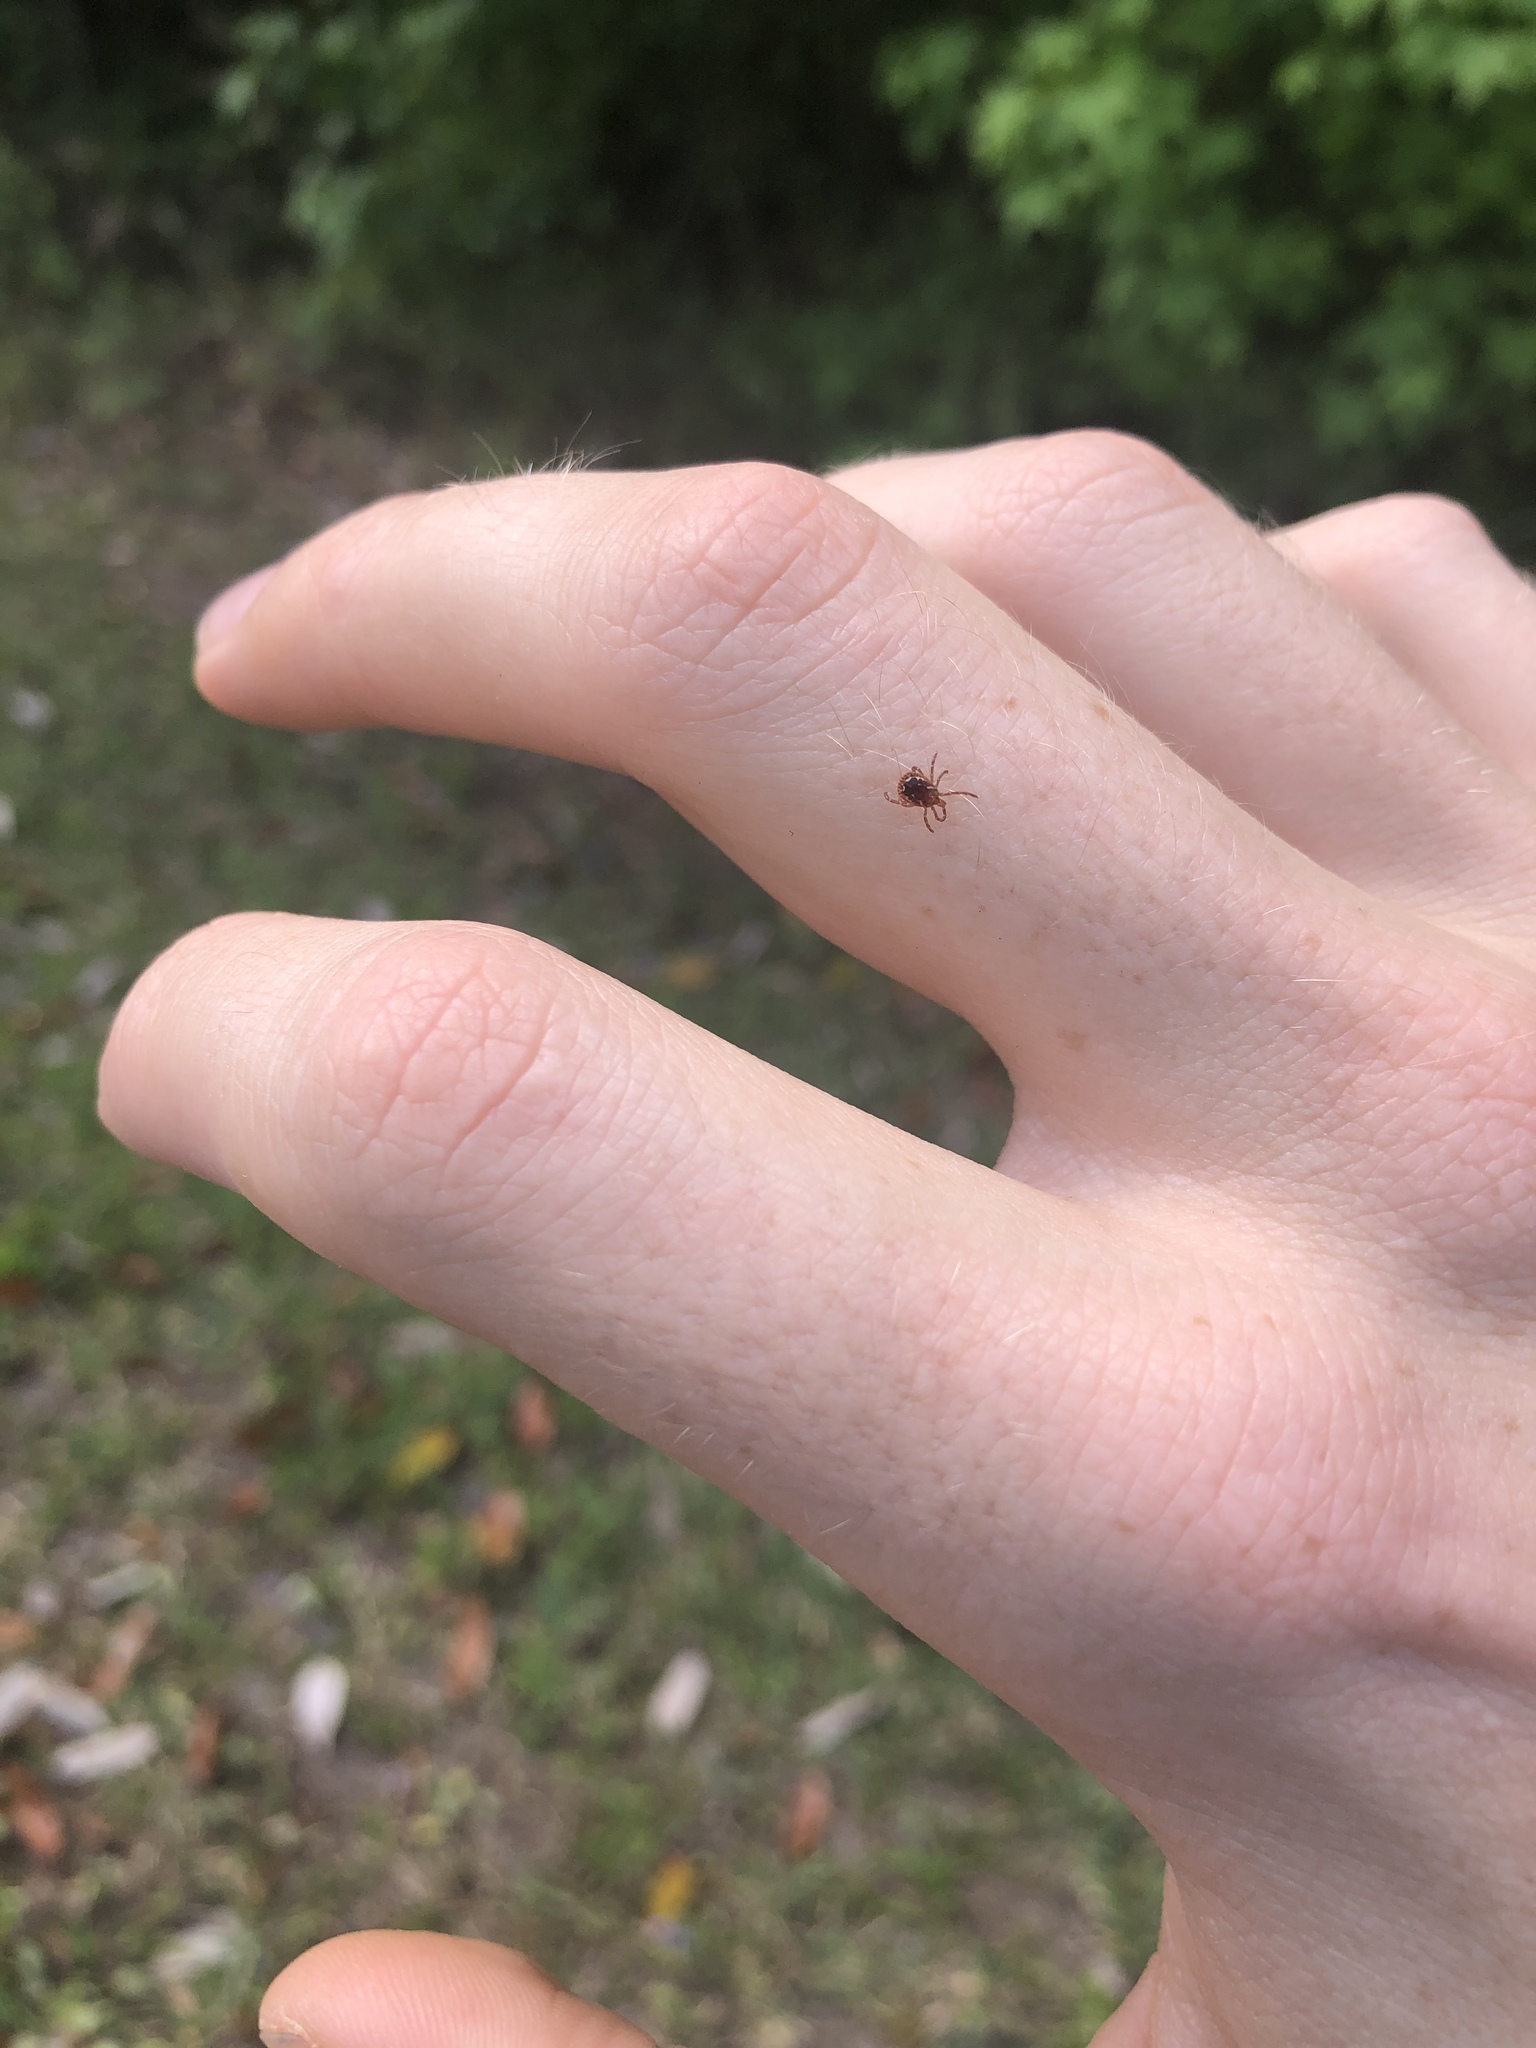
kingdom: Animalia
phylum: Arthropoda
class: Arachnida
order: Ixodida
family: Ixodidae
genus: Amblyomma
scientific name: Amblyomma americanum
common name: Lone star tick
